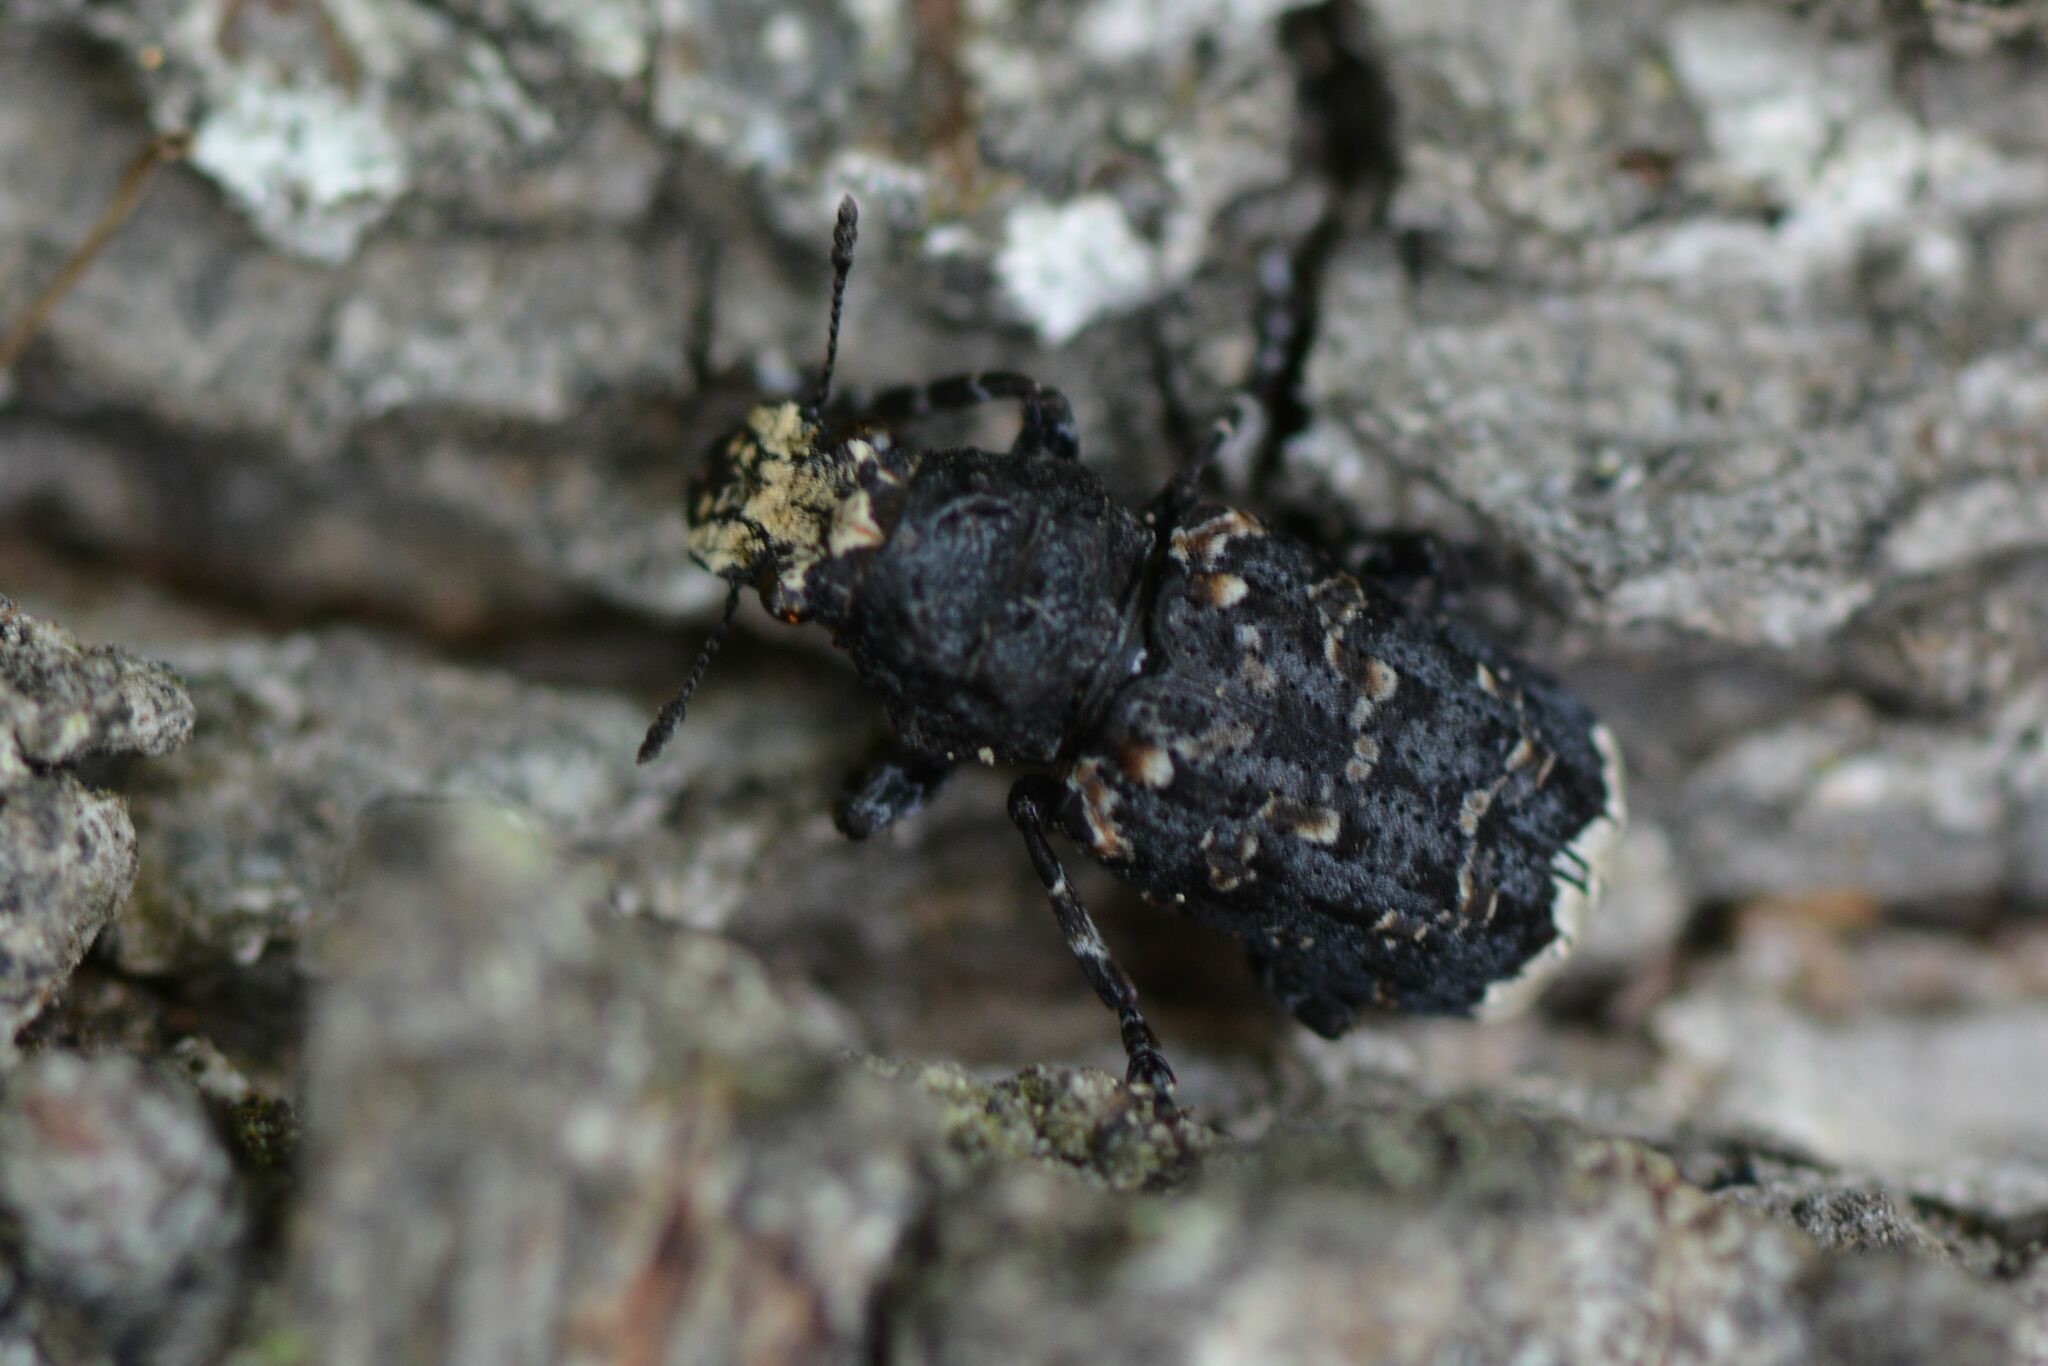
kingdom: Animalia
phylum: Arthropoda
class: Insecta
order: Coleoptera
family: Anthribidae
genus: Platyrhinus
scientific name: Platyrhinus resinosus
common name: Cramp-ball fungus weevil
